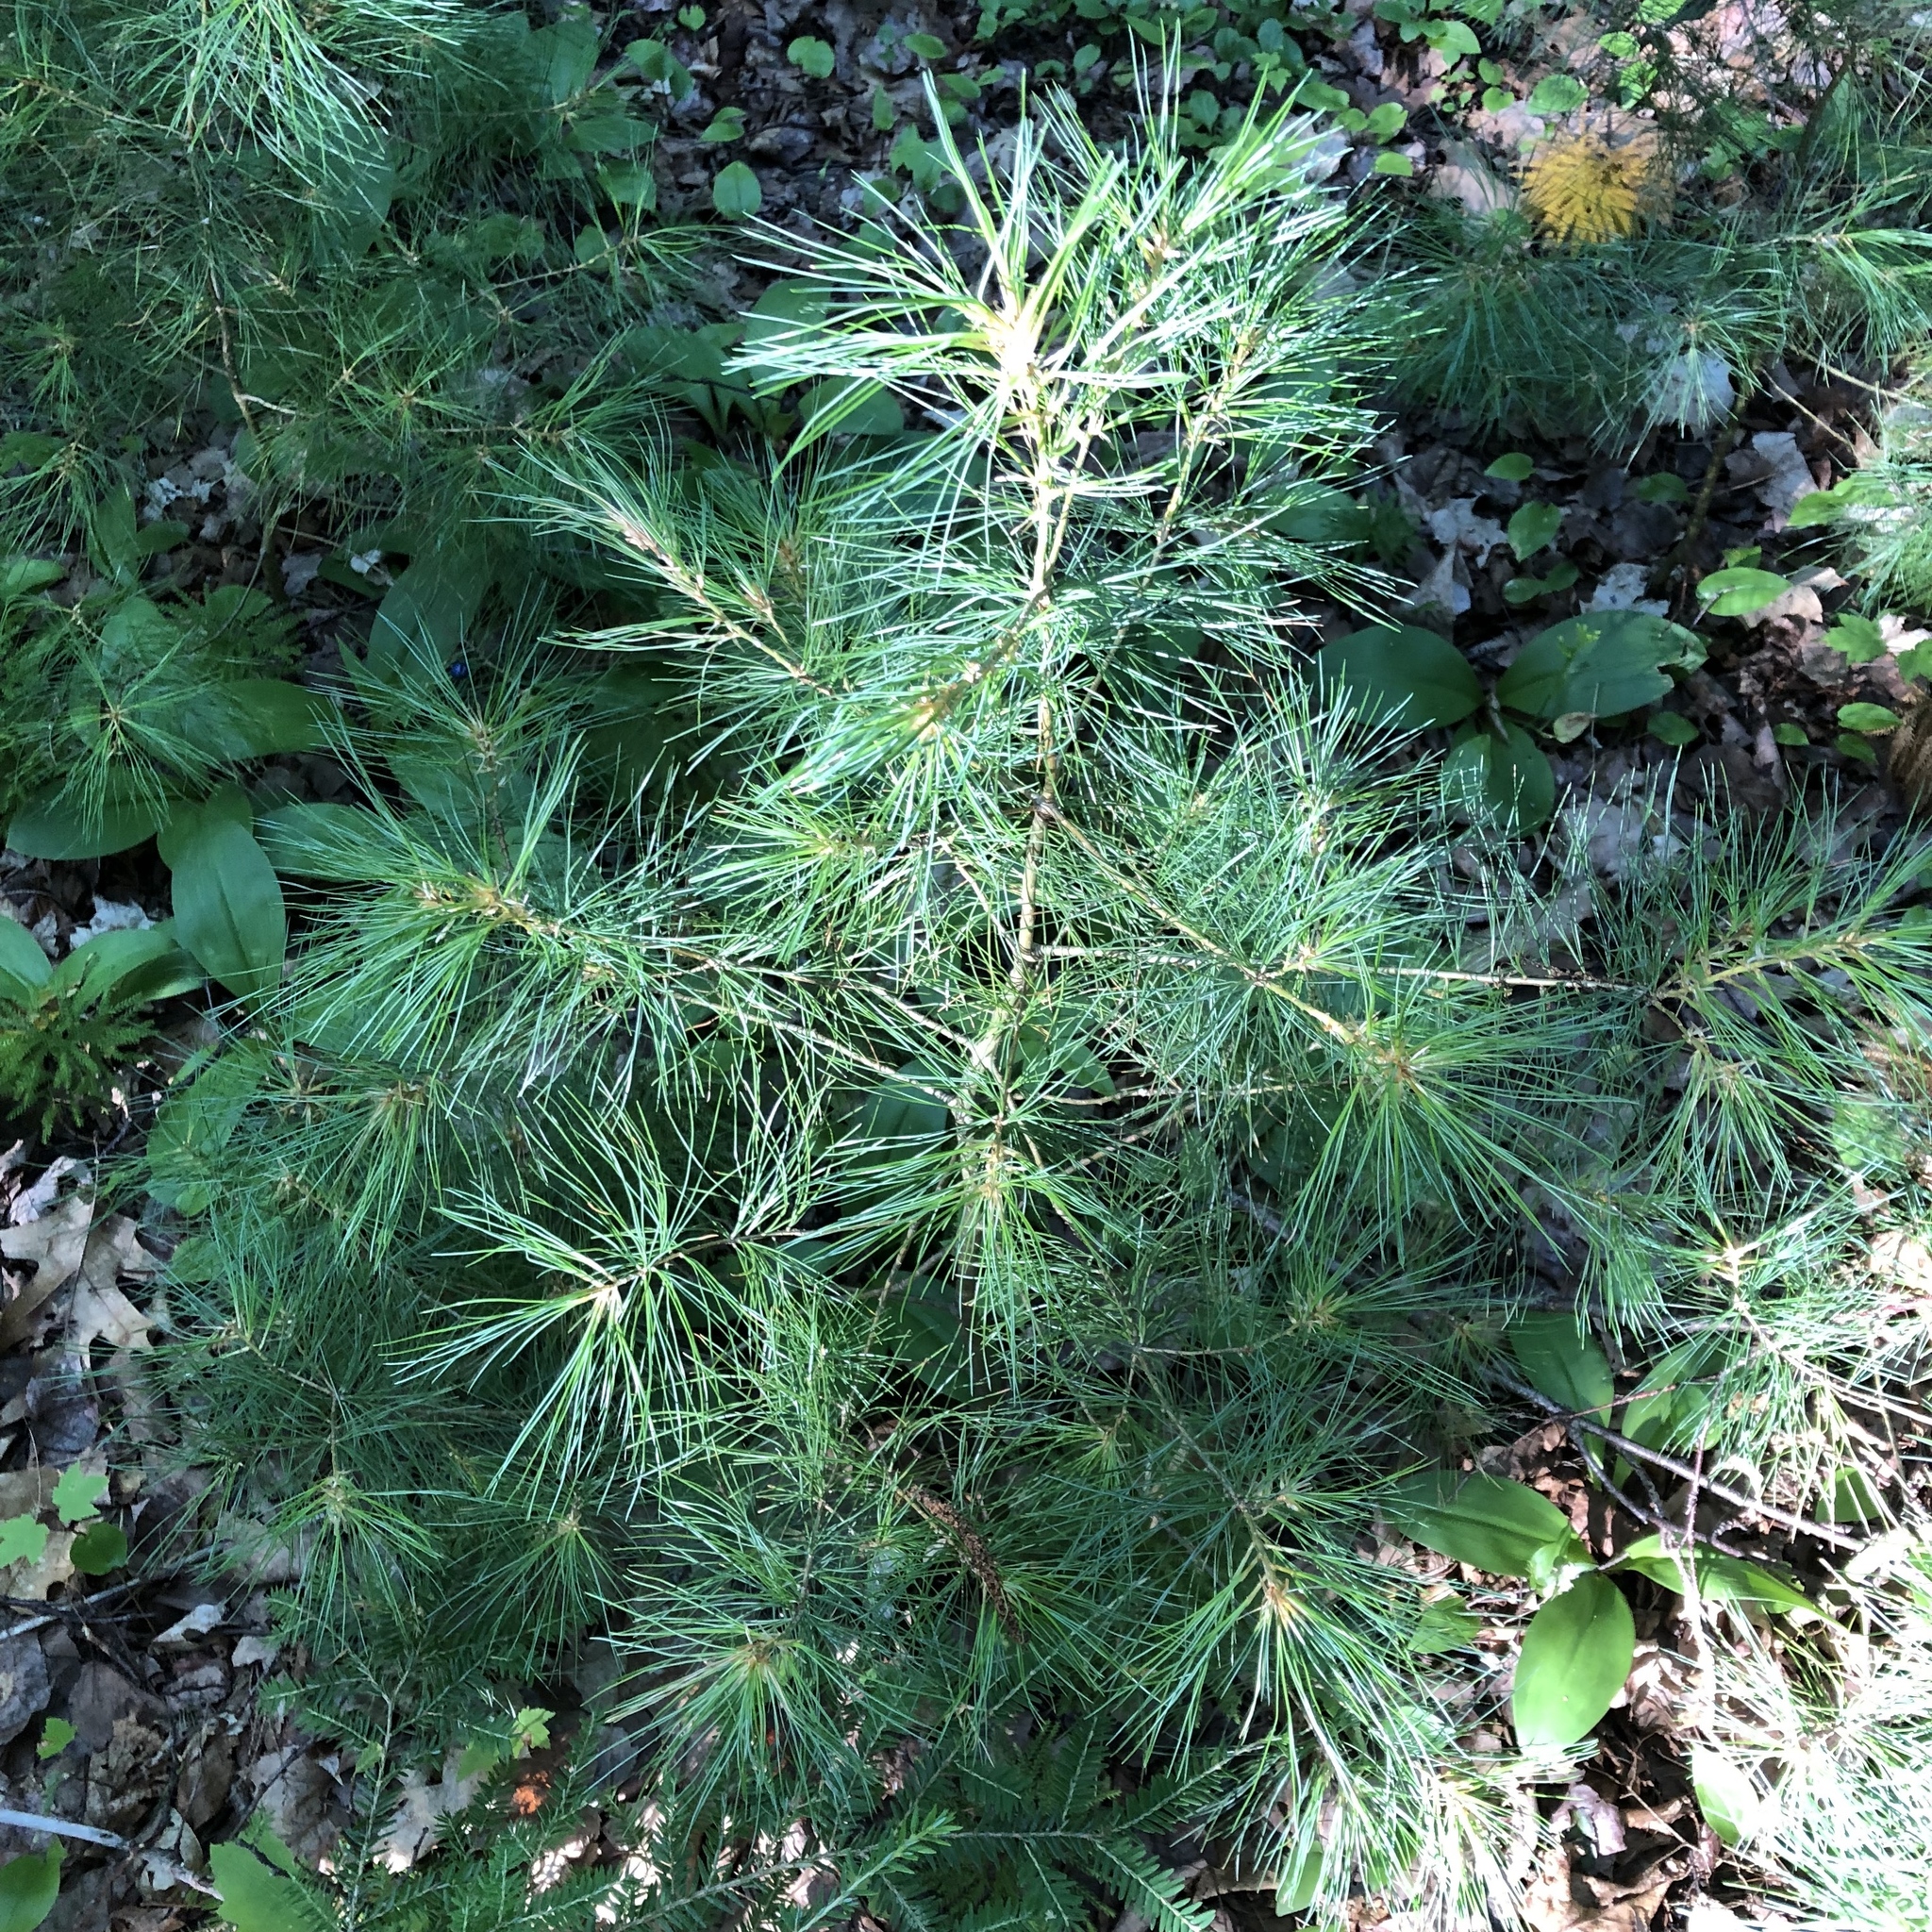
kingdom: Plantae
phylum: Tracheophyta
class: Pinopsida
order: Pinales
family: Pinaceae
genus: Pinus
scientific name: Pinus strobus
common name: Weymouth pine
